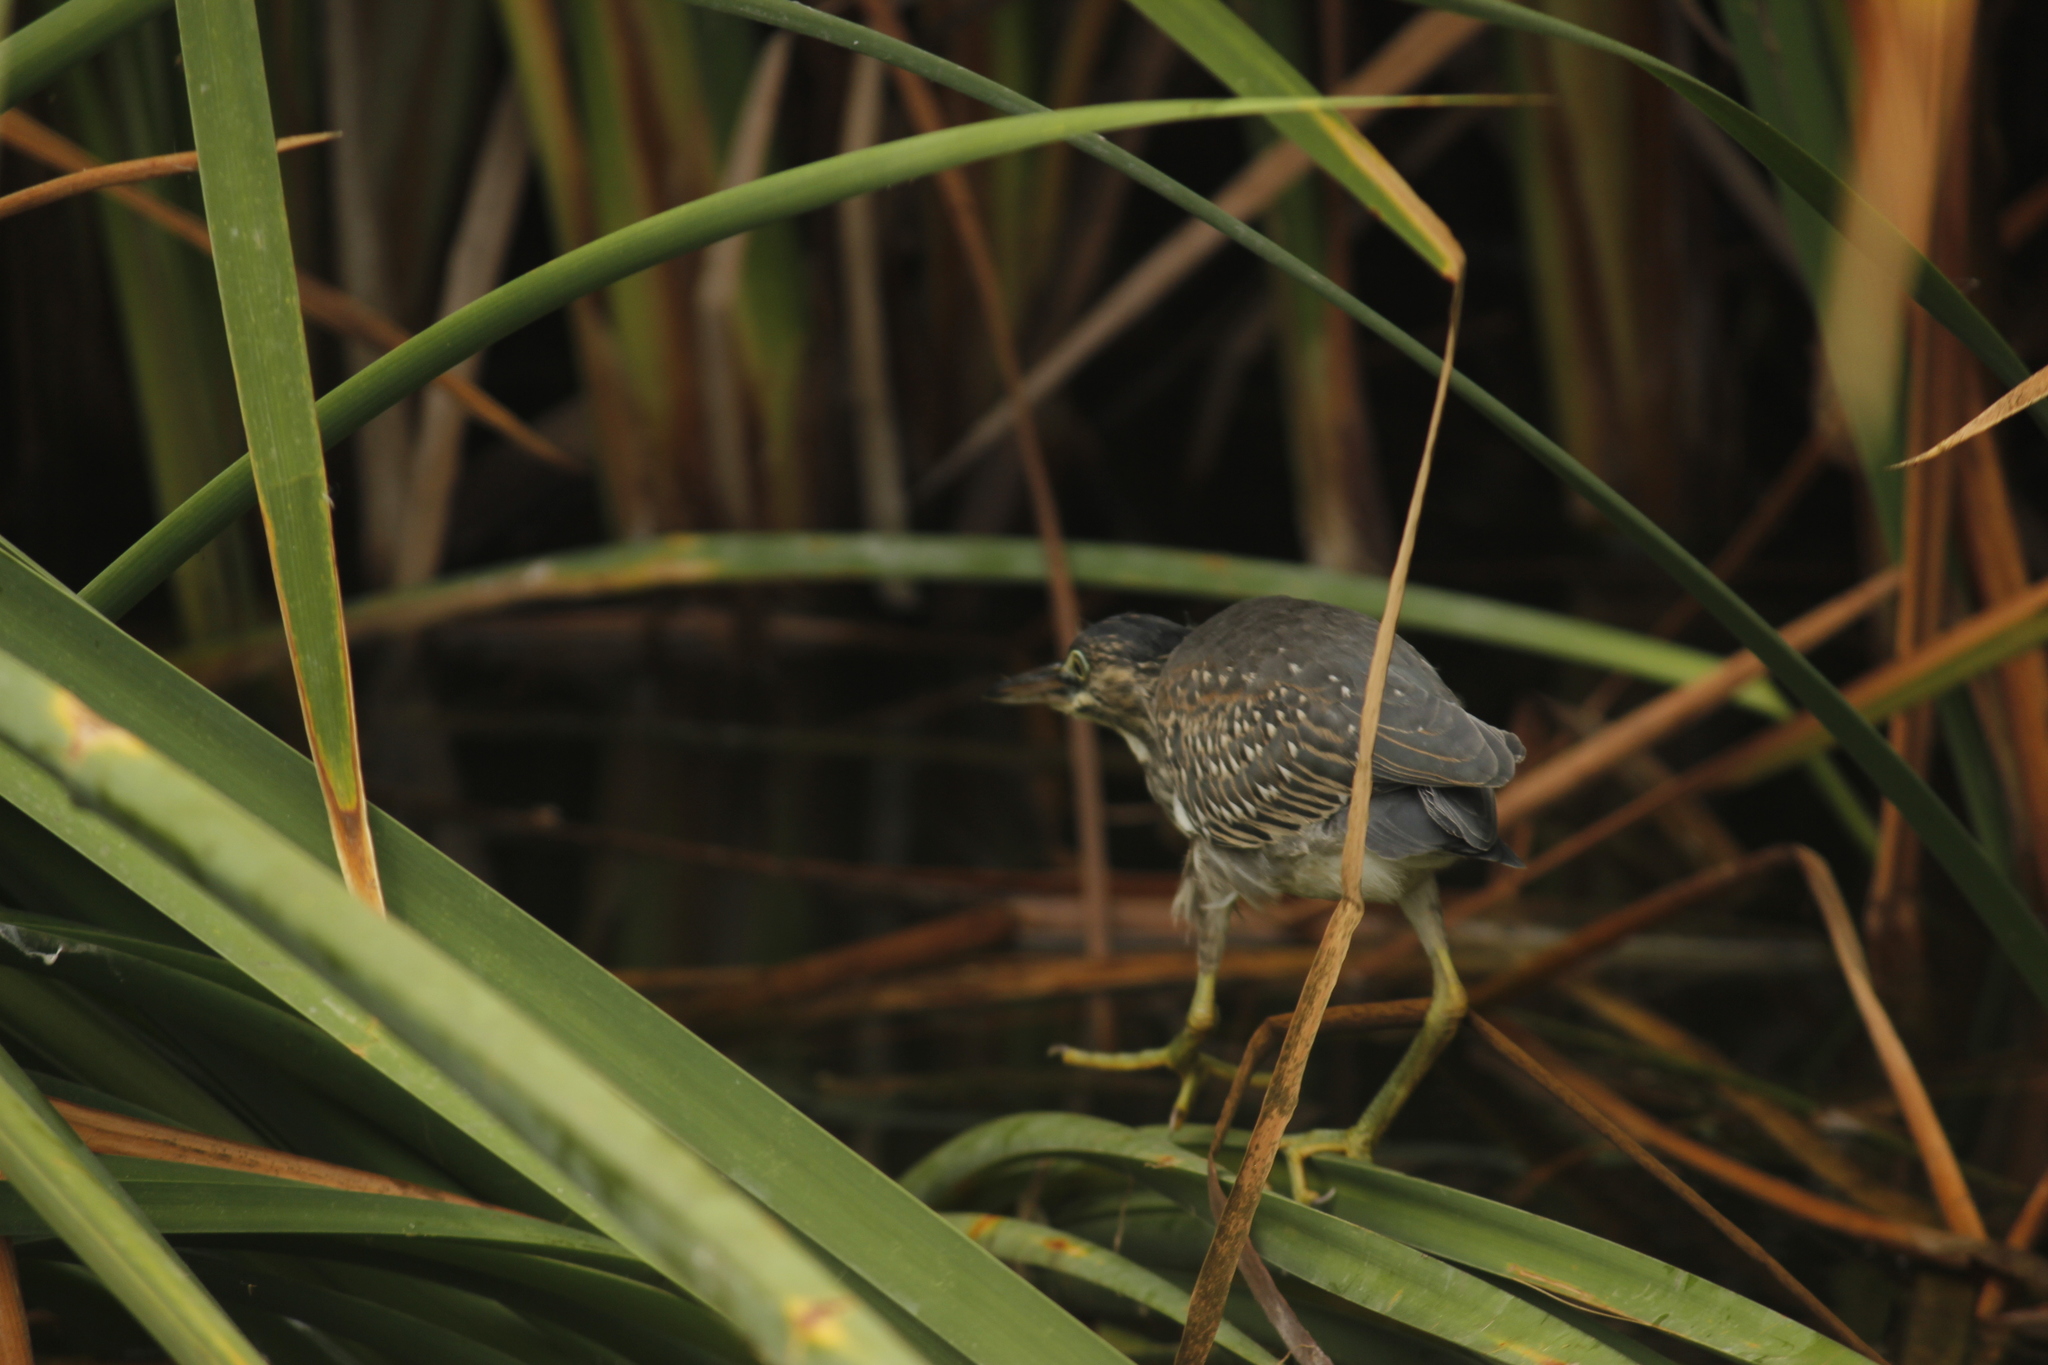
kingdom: Animalia
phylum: Chordata
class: Aves
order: Pelecaniformes
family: Ardeidae
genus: Butorides
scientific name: Butorides striata
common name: Striated heron
